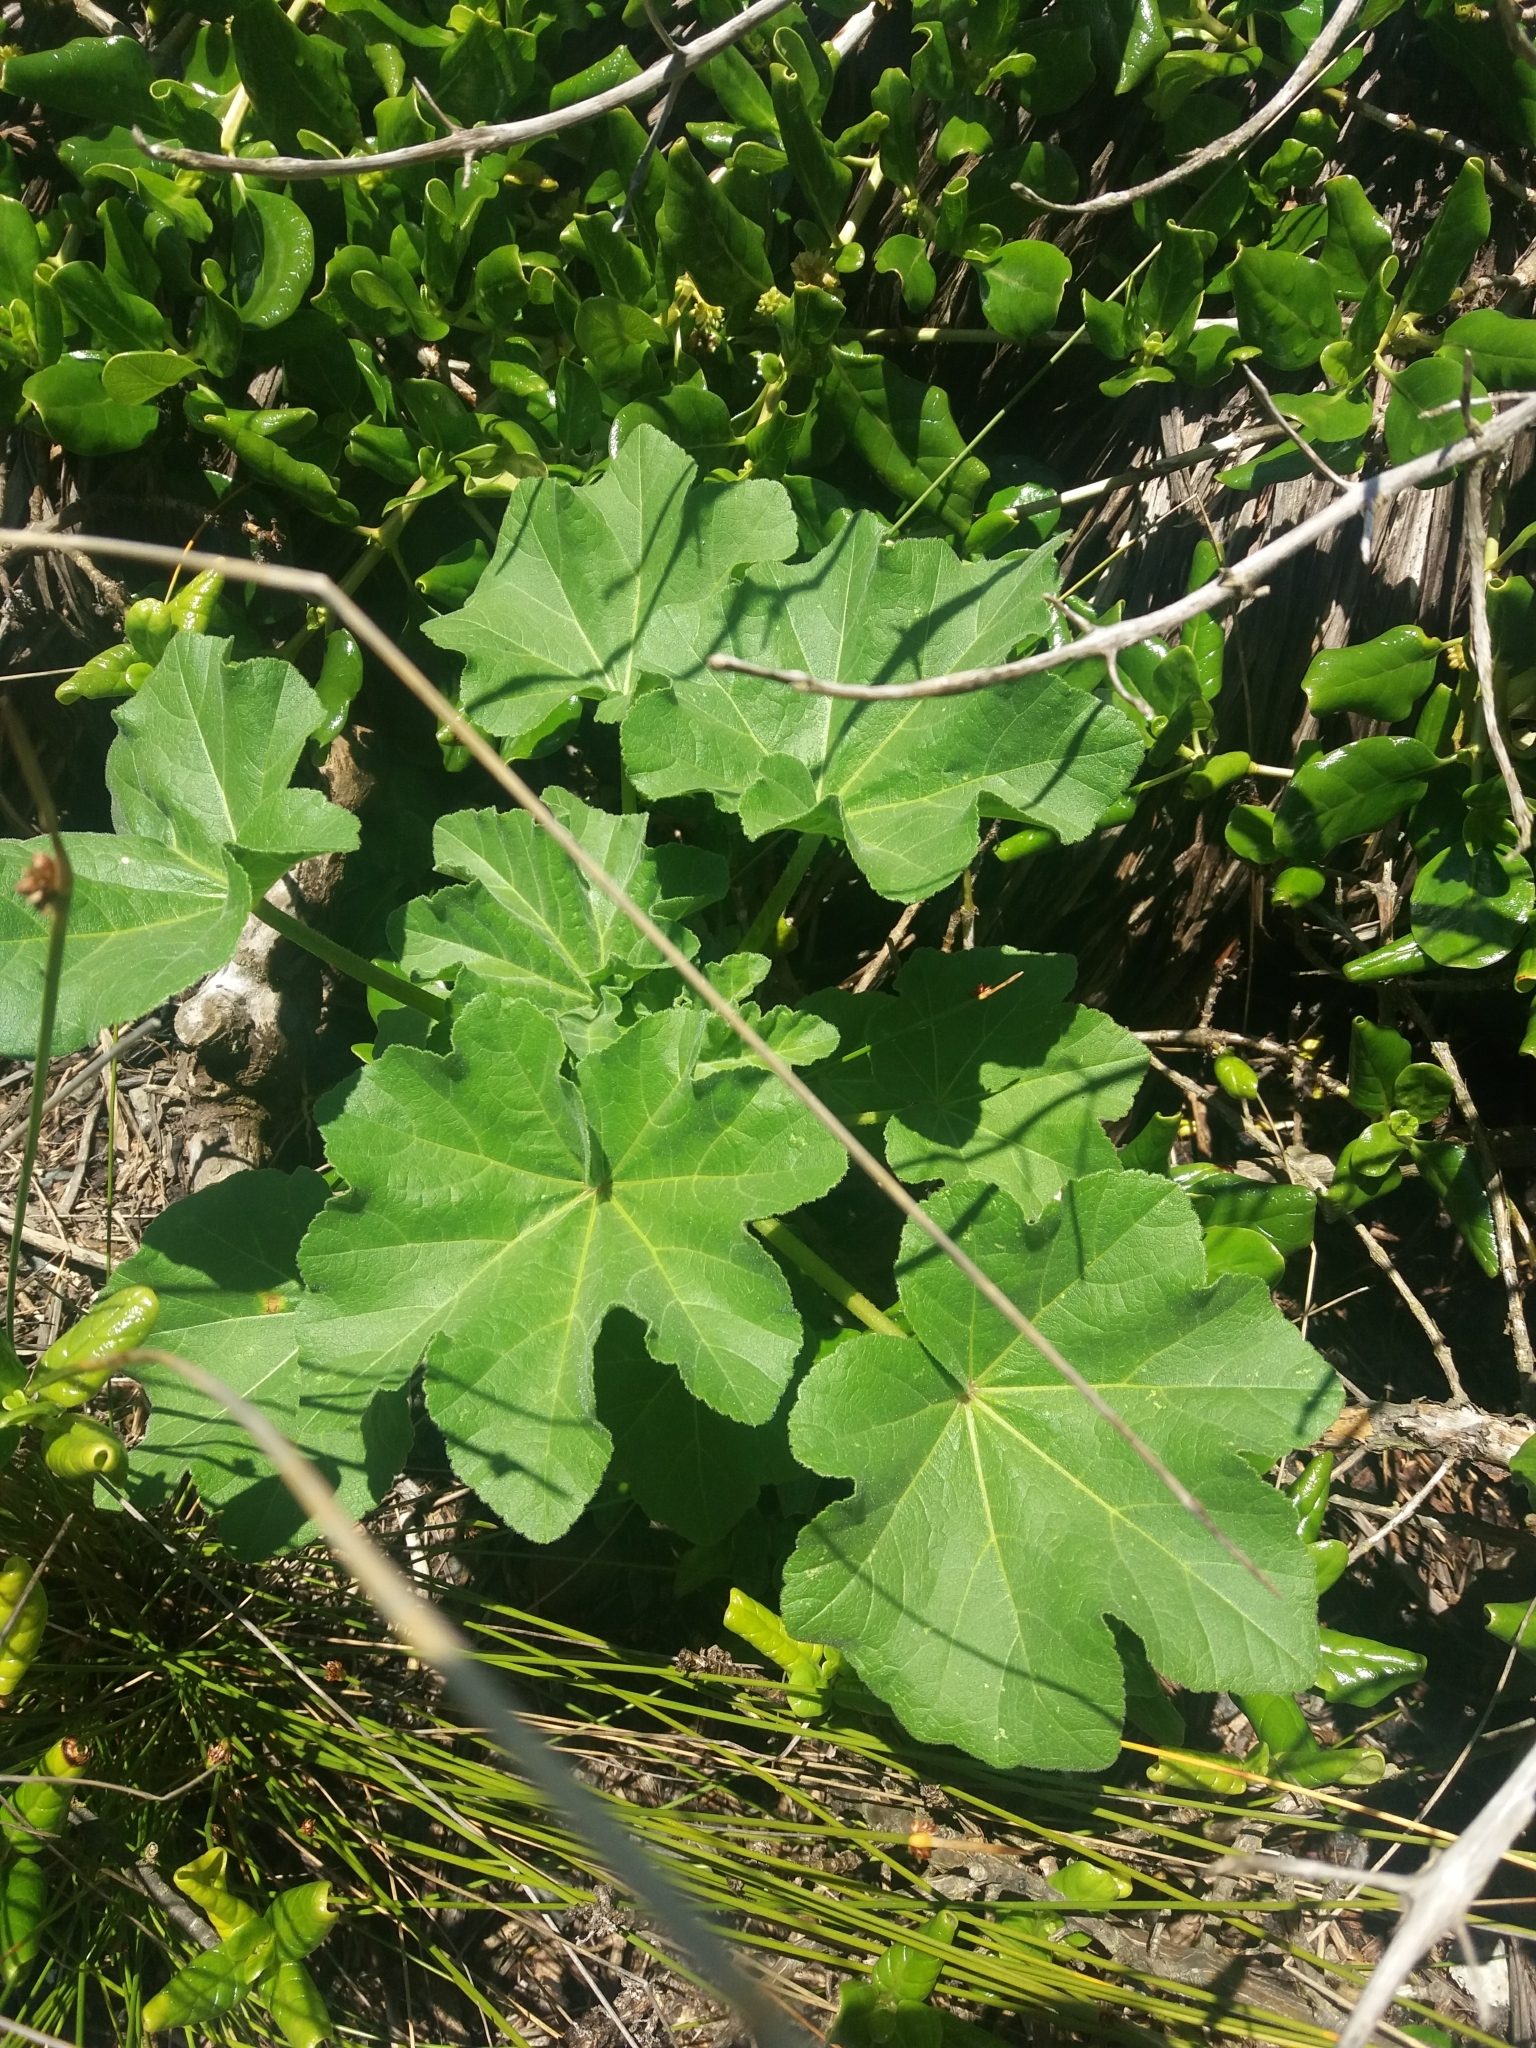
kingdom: Plantae
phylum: Tracheophyta
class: Magnoliopsida
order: Malvales
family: Malvaceae
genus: Malva
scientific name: Malva arborea
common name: Tree mallow
